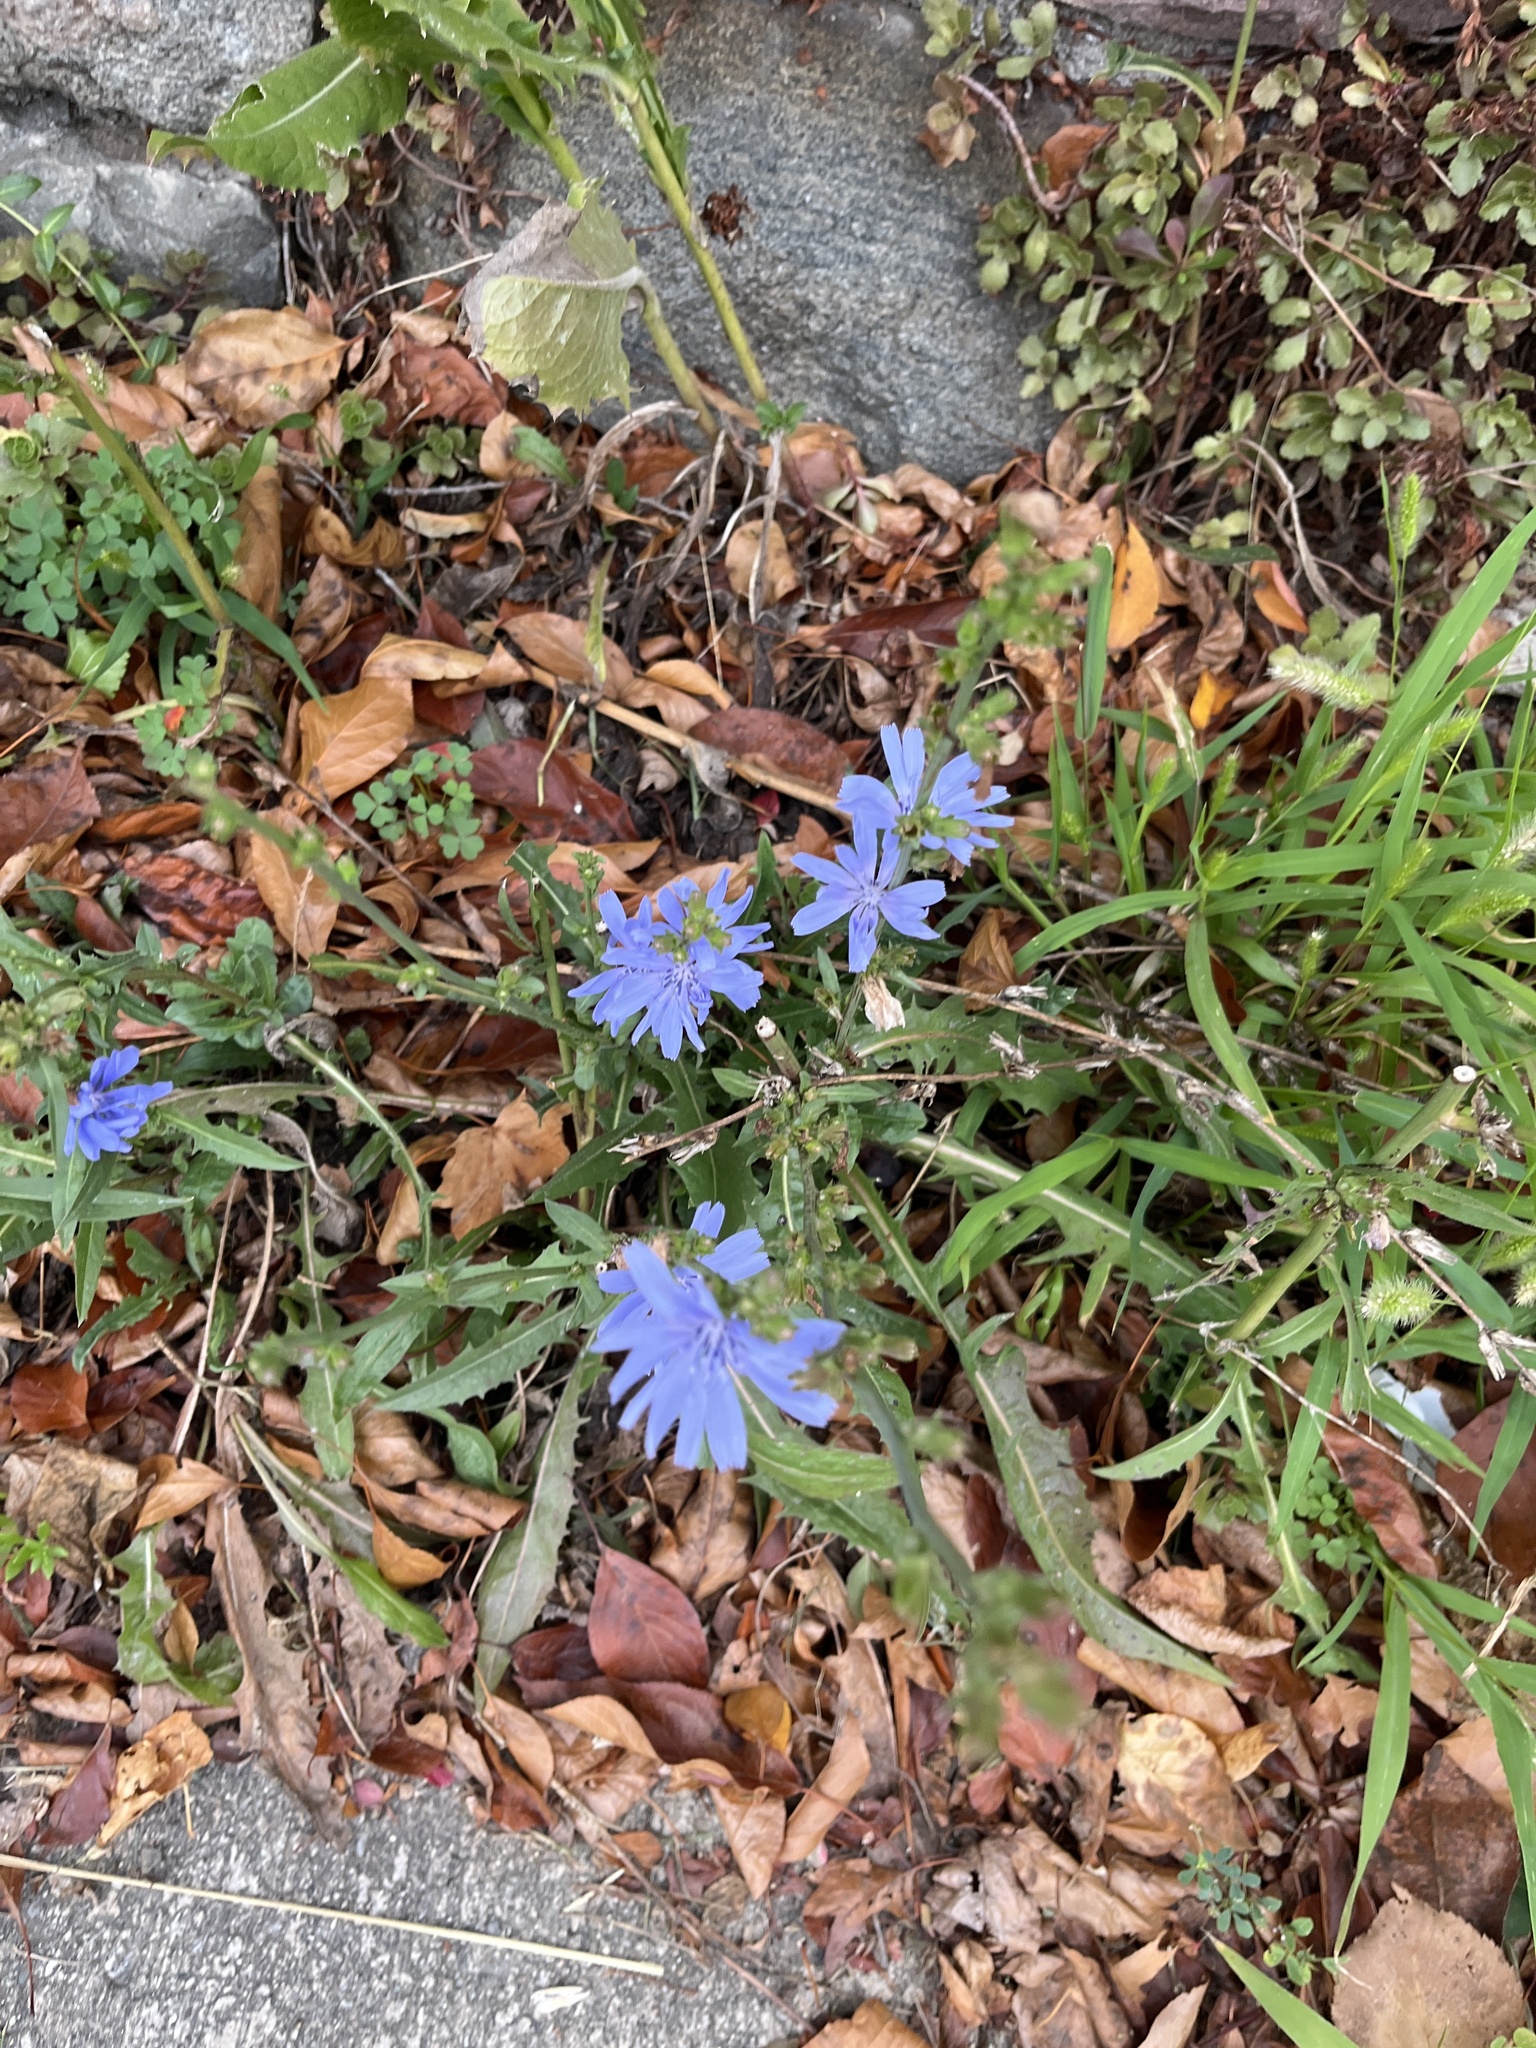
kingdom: Plantae
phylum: Tracheophyta
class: Magnoliopsida
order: Asterales
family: Asteraceae
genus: Cichorium
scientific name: Cichorium intybus
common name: Chicory
